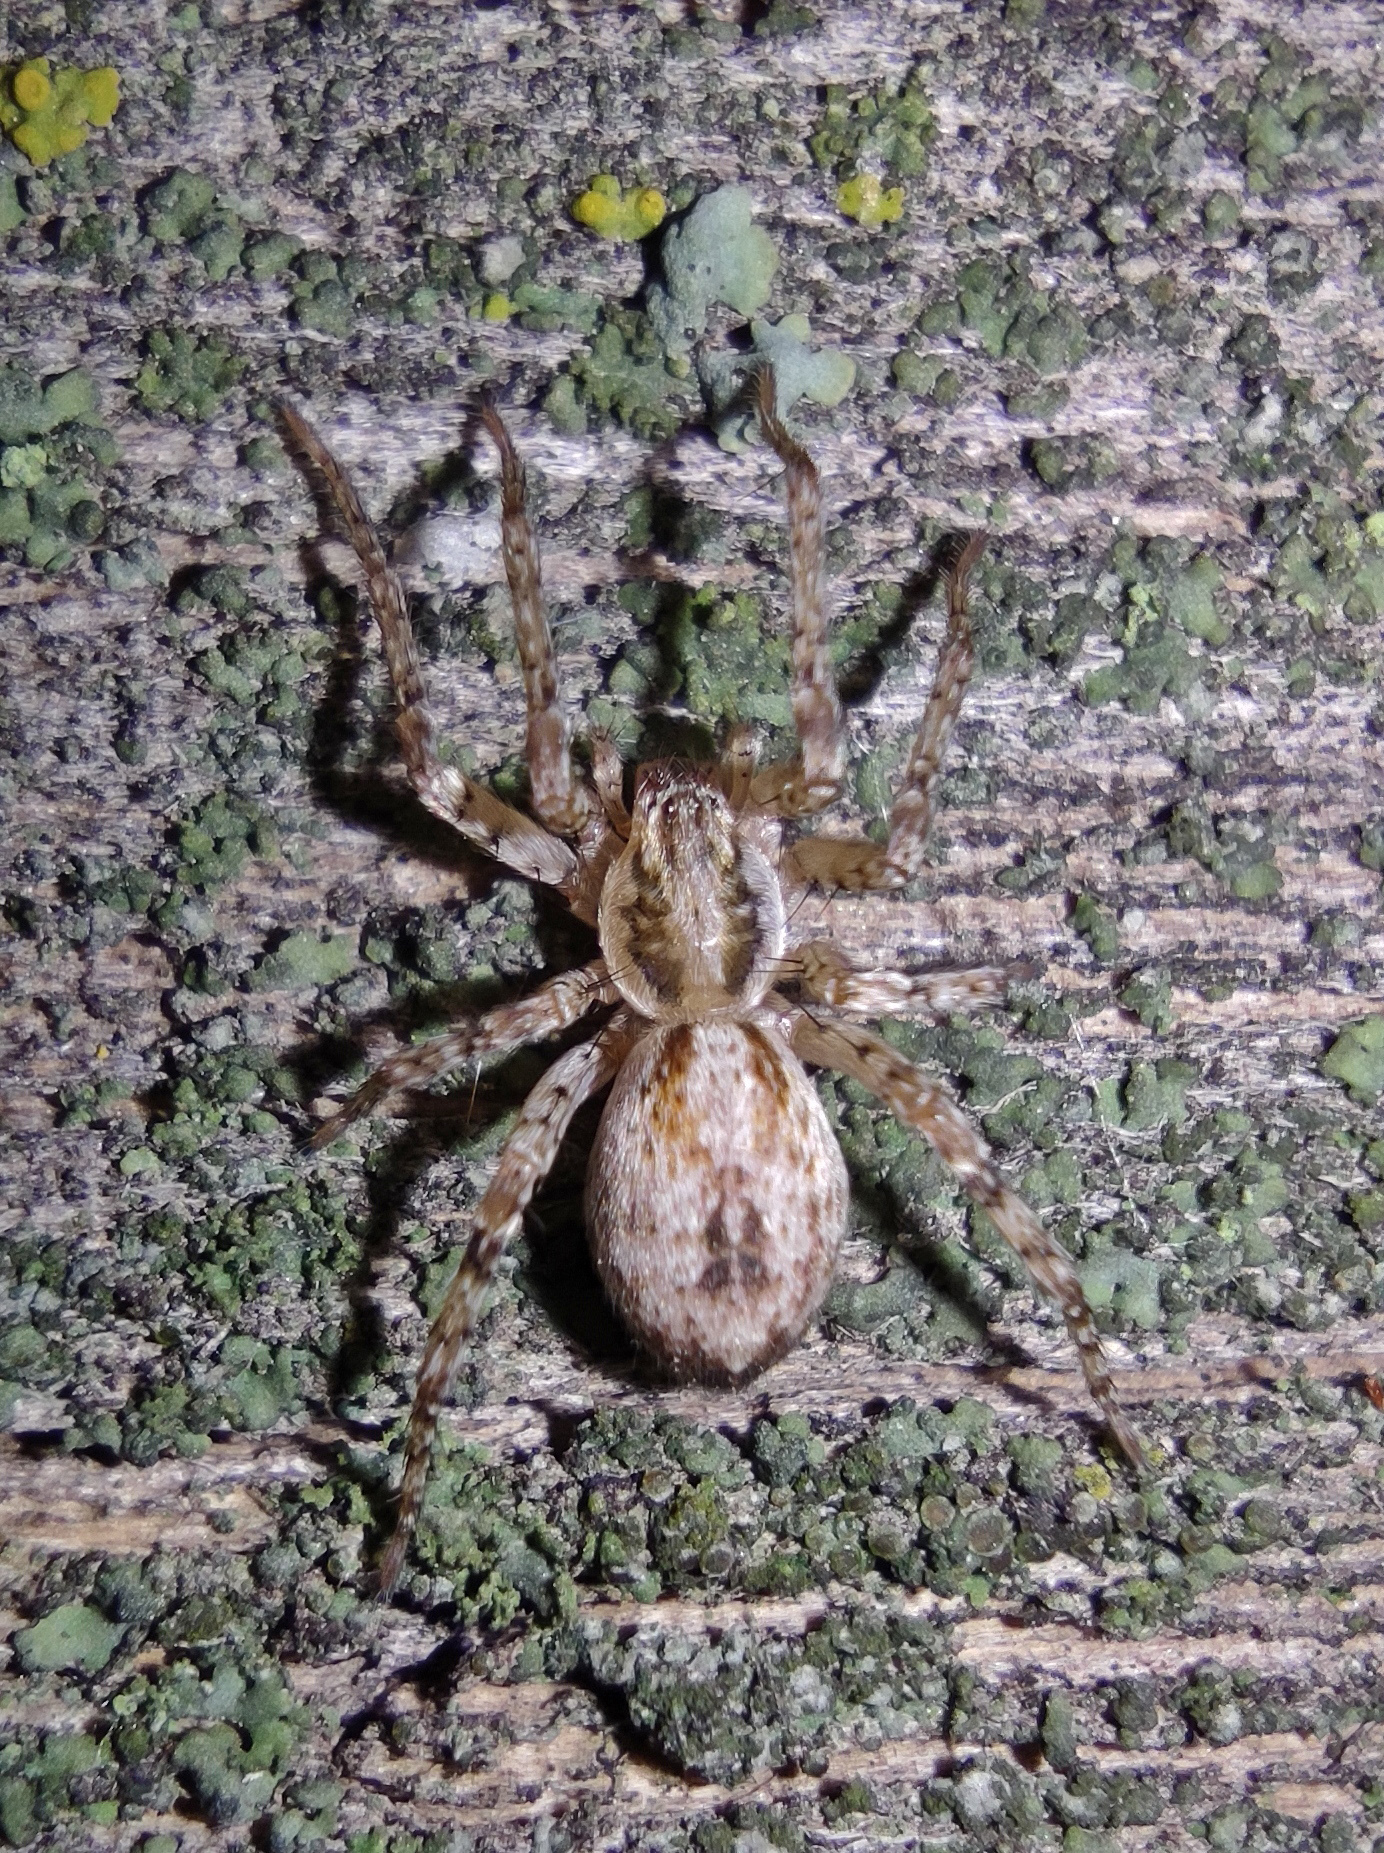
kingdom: Animalia
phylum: Arthropoda
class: Arachnida
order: Araneae
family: Anyphaenidae
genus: Anyphaena
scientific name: Anyphaena accentuata
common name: Buzzing spider
